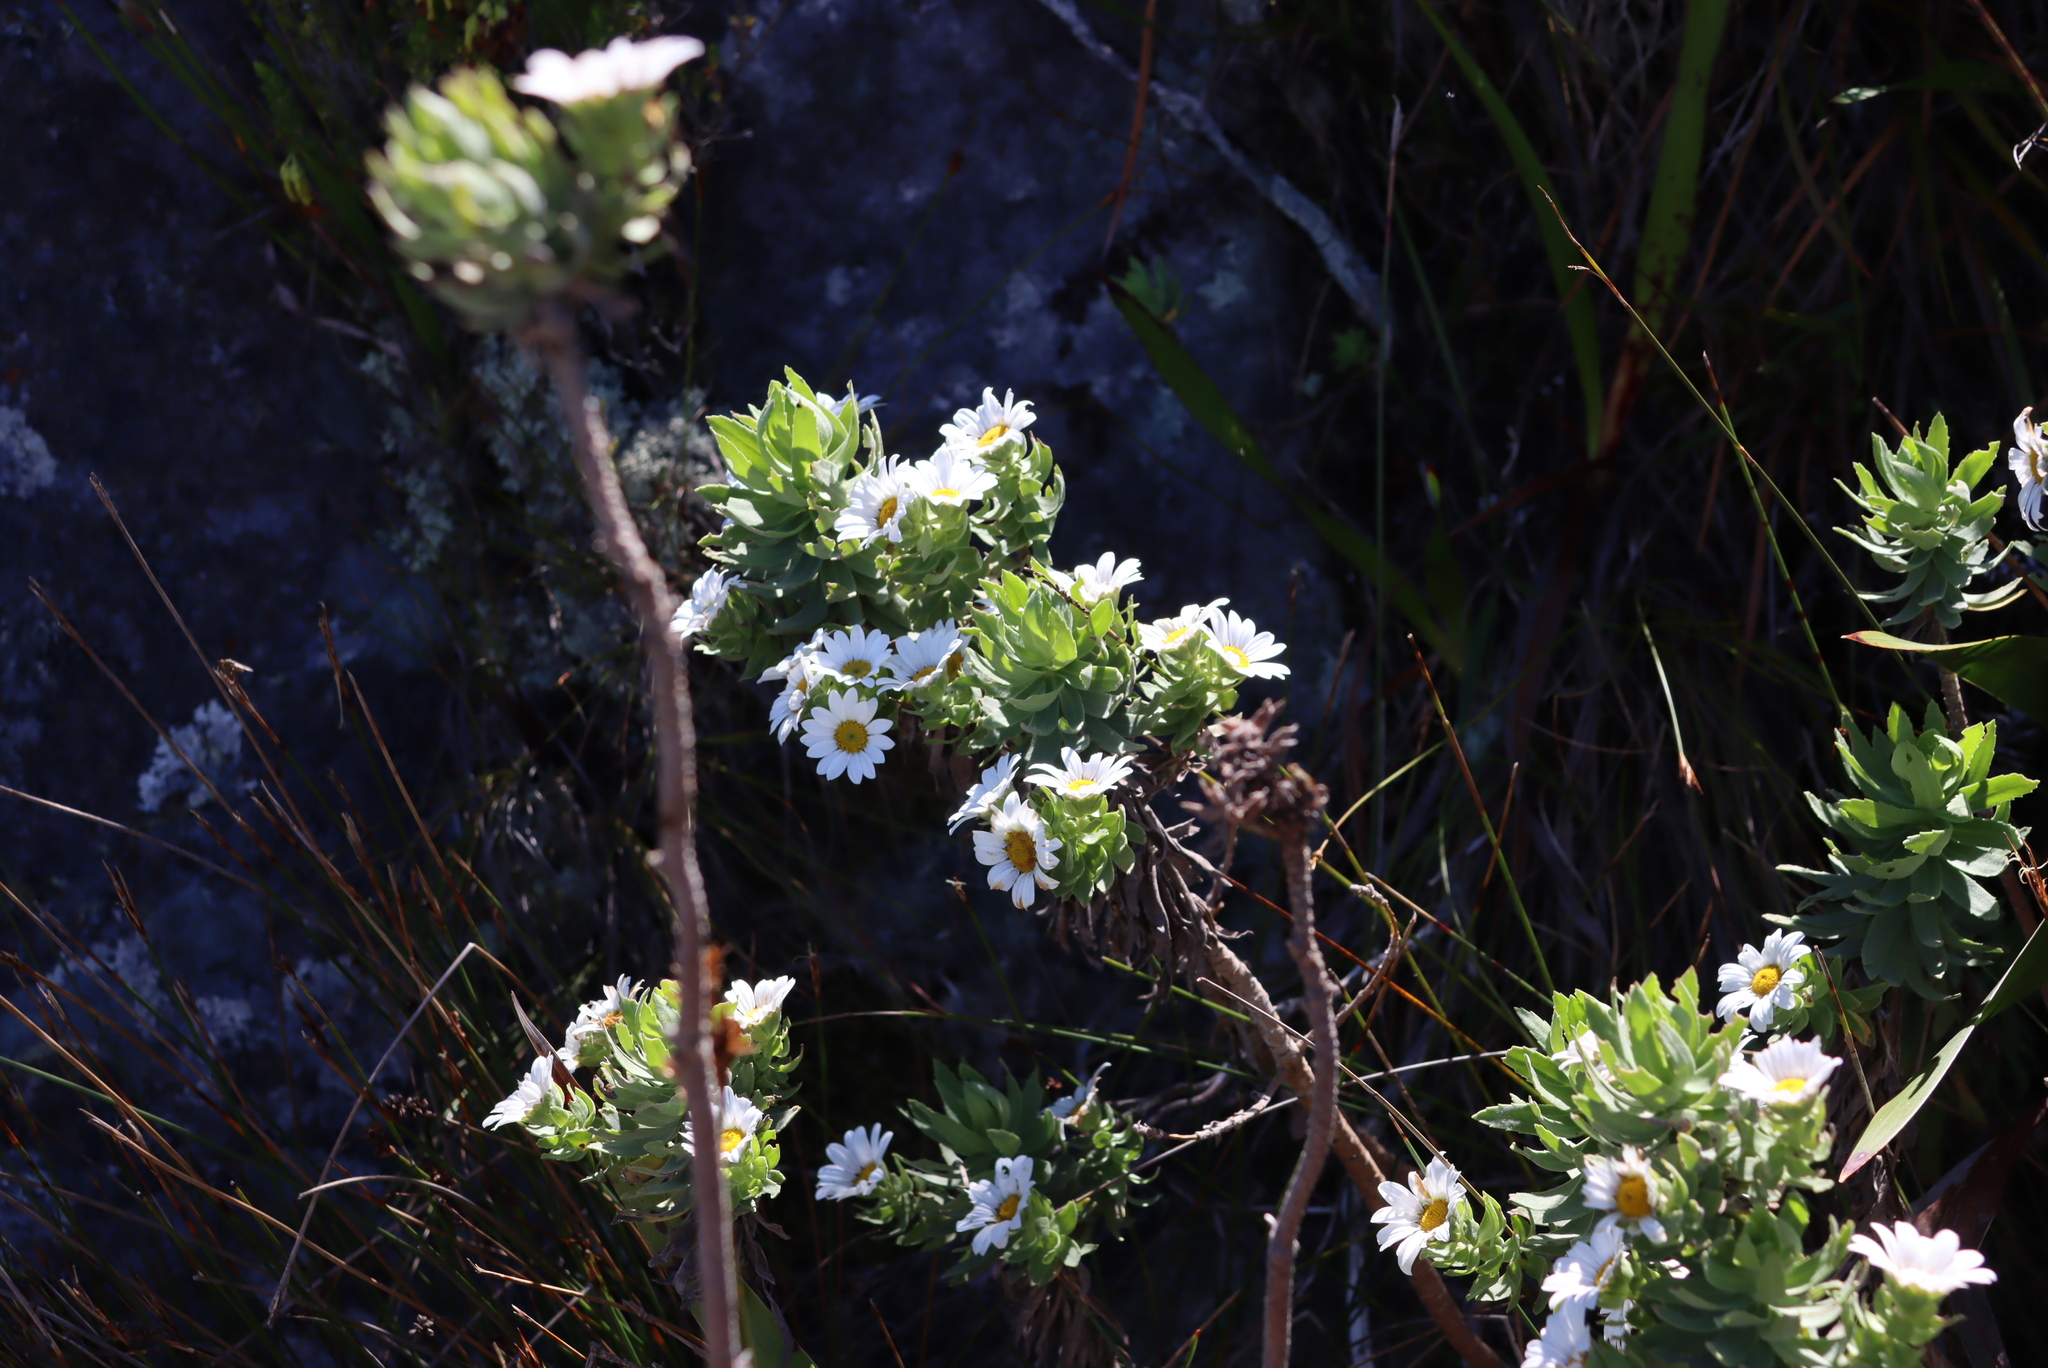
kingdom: Plantae
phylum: Tracheophyta
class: Magnoliopsida
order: Asterales
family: Asteraceae
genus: Osmitopsis
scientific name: Osmitopsis asteriscoides
